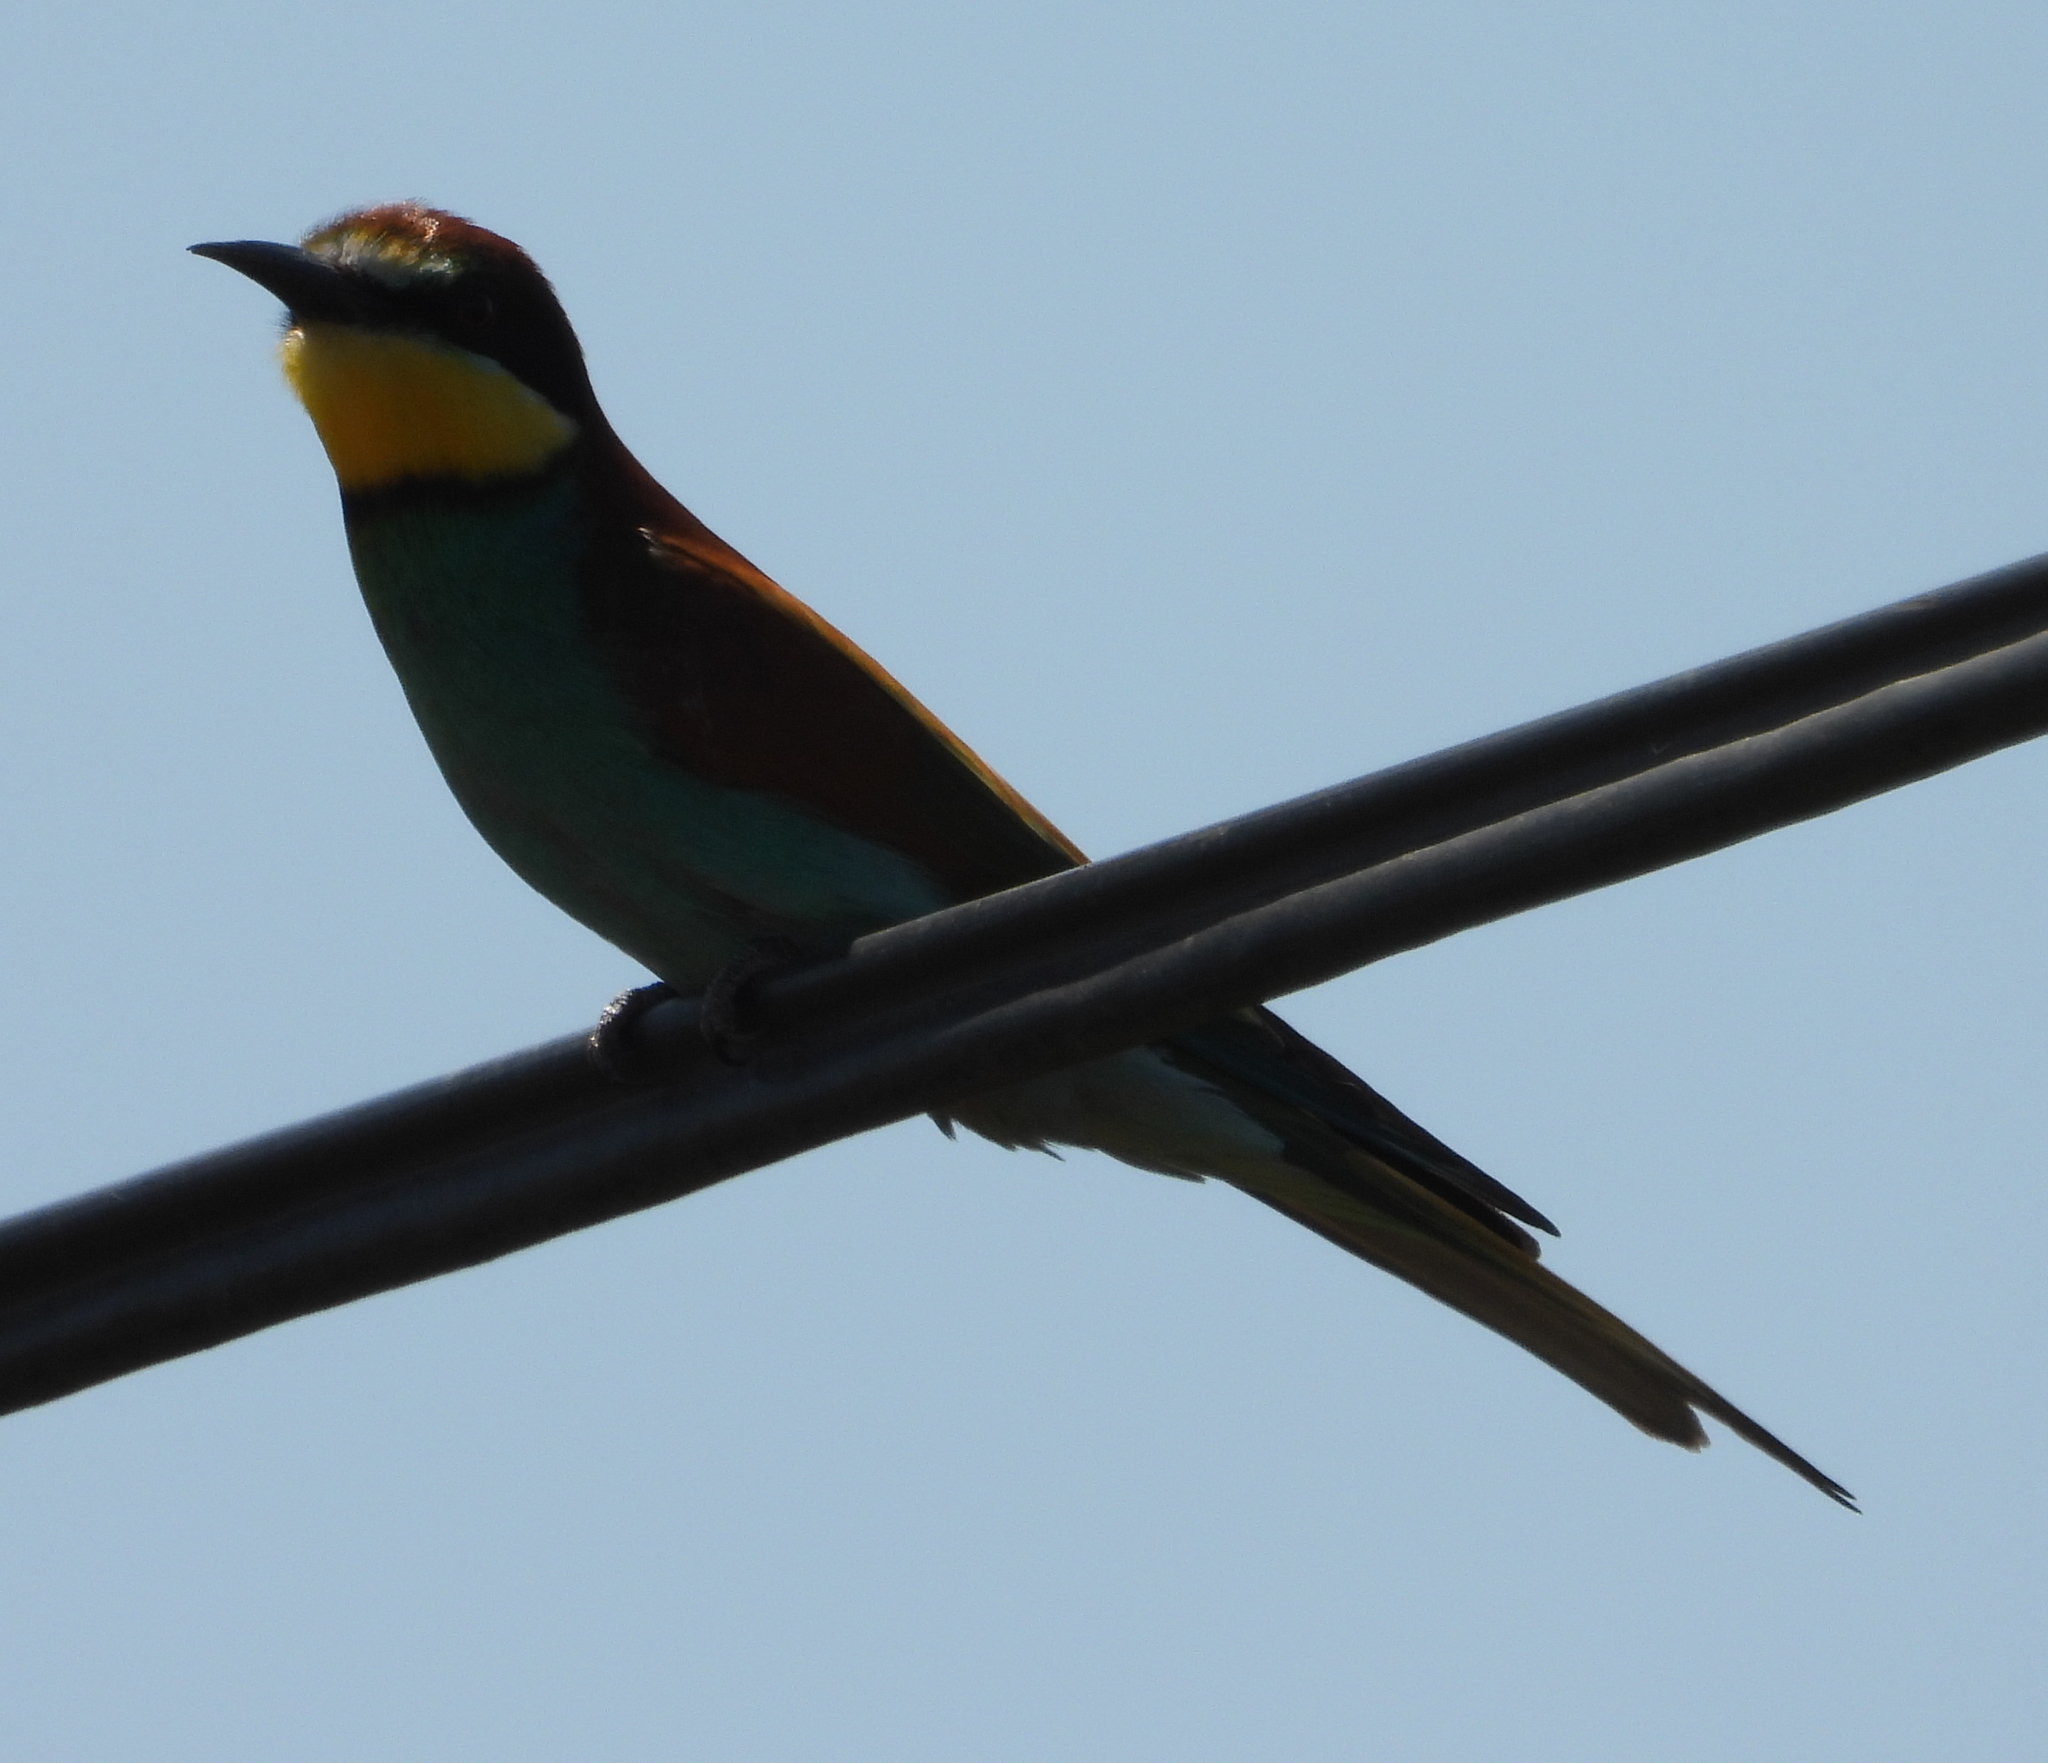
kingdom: Animalia
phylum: Chordata
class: Aves
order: Coraciiformes
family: Meropidae
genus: Merops
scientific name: Merops apiaster
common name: European bee-eater
